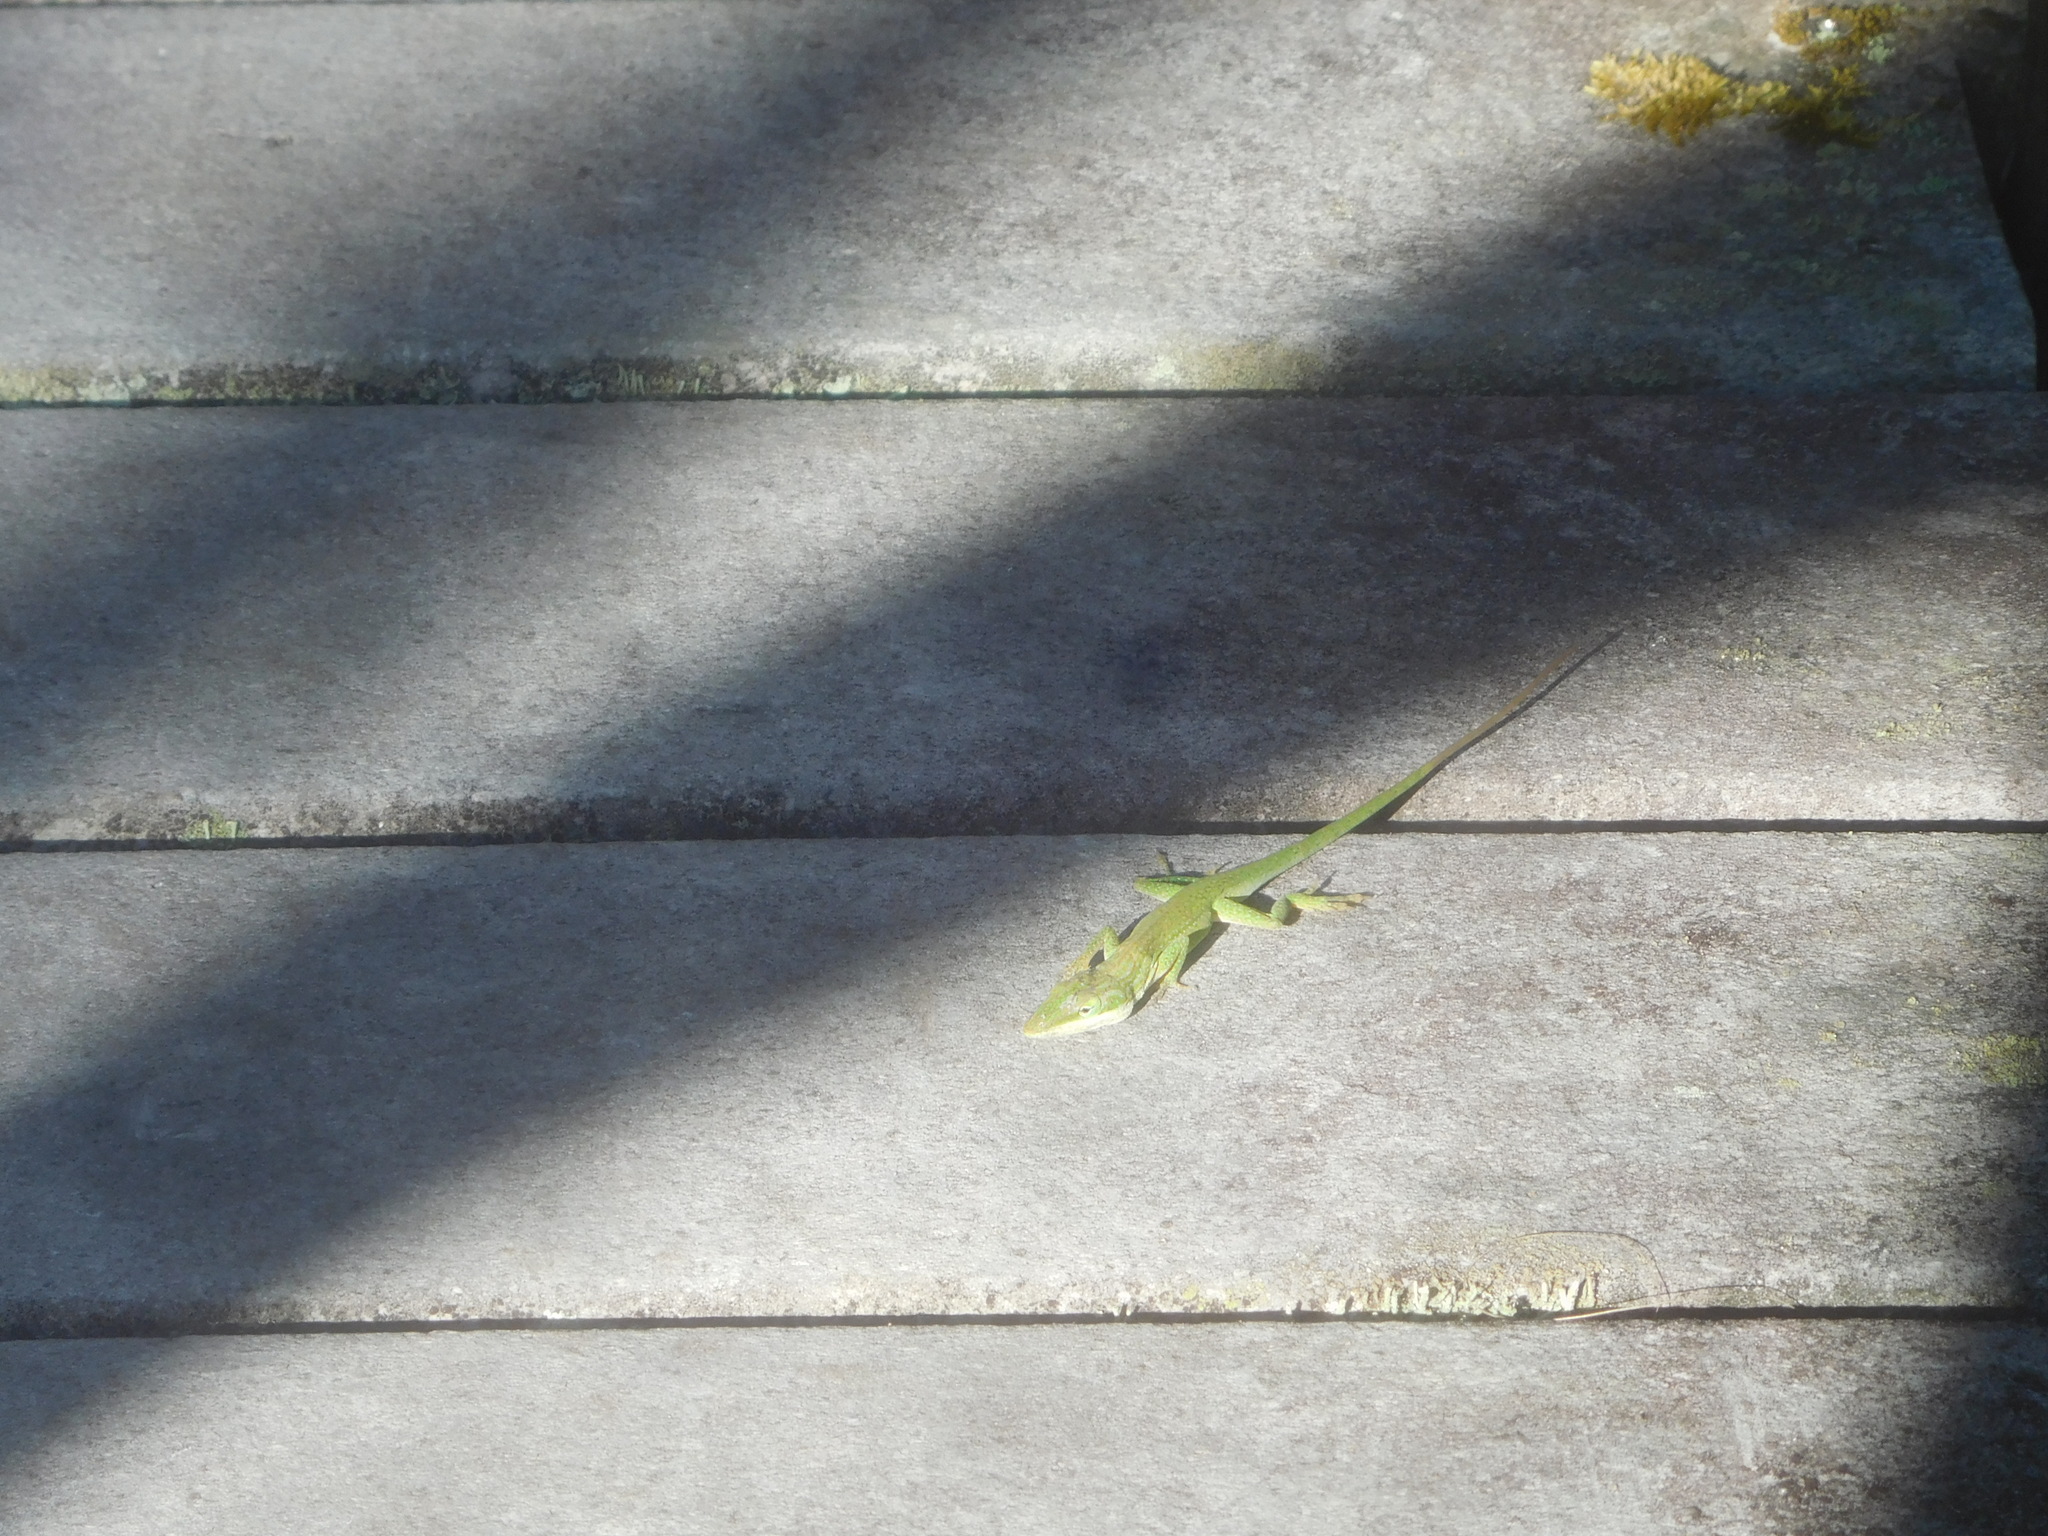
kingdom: Animalia
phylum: Chordata
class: Squamata
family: Dactyloidae
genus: Anolis
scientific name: Anolis carolinensis
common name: Green anole
